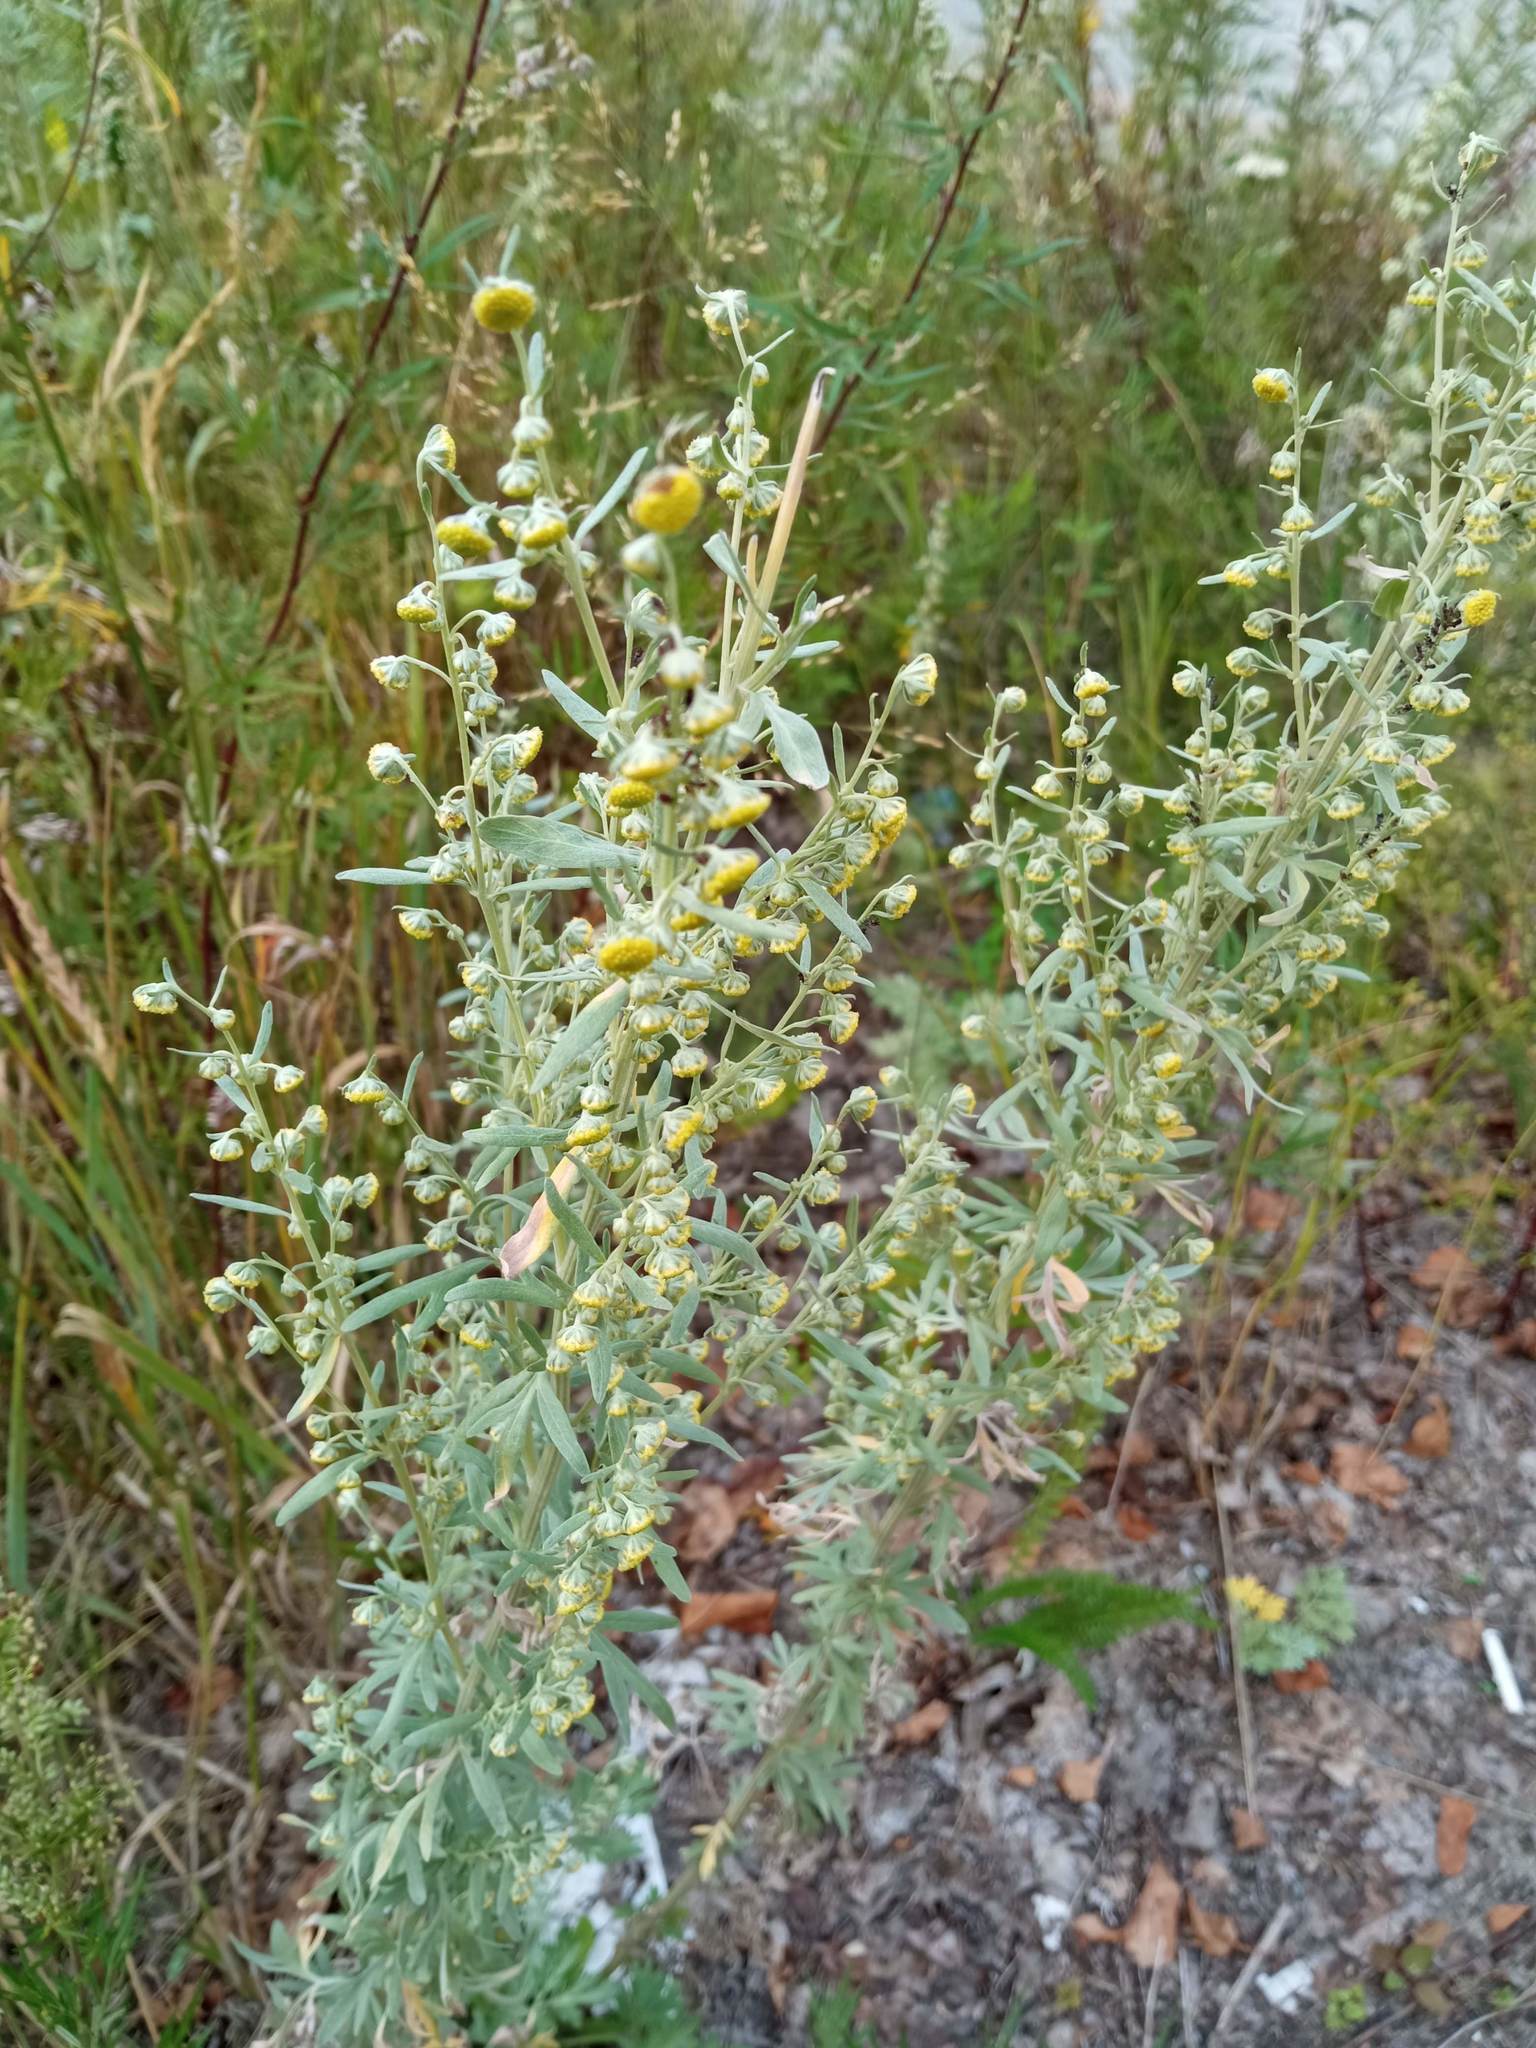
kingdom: Plantae
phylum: Tracheophyta
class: Magnoliopsida
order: Asterales
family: Asteraceae
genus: Artemisia
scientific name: Artemisia absinthium
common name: Wormwood
